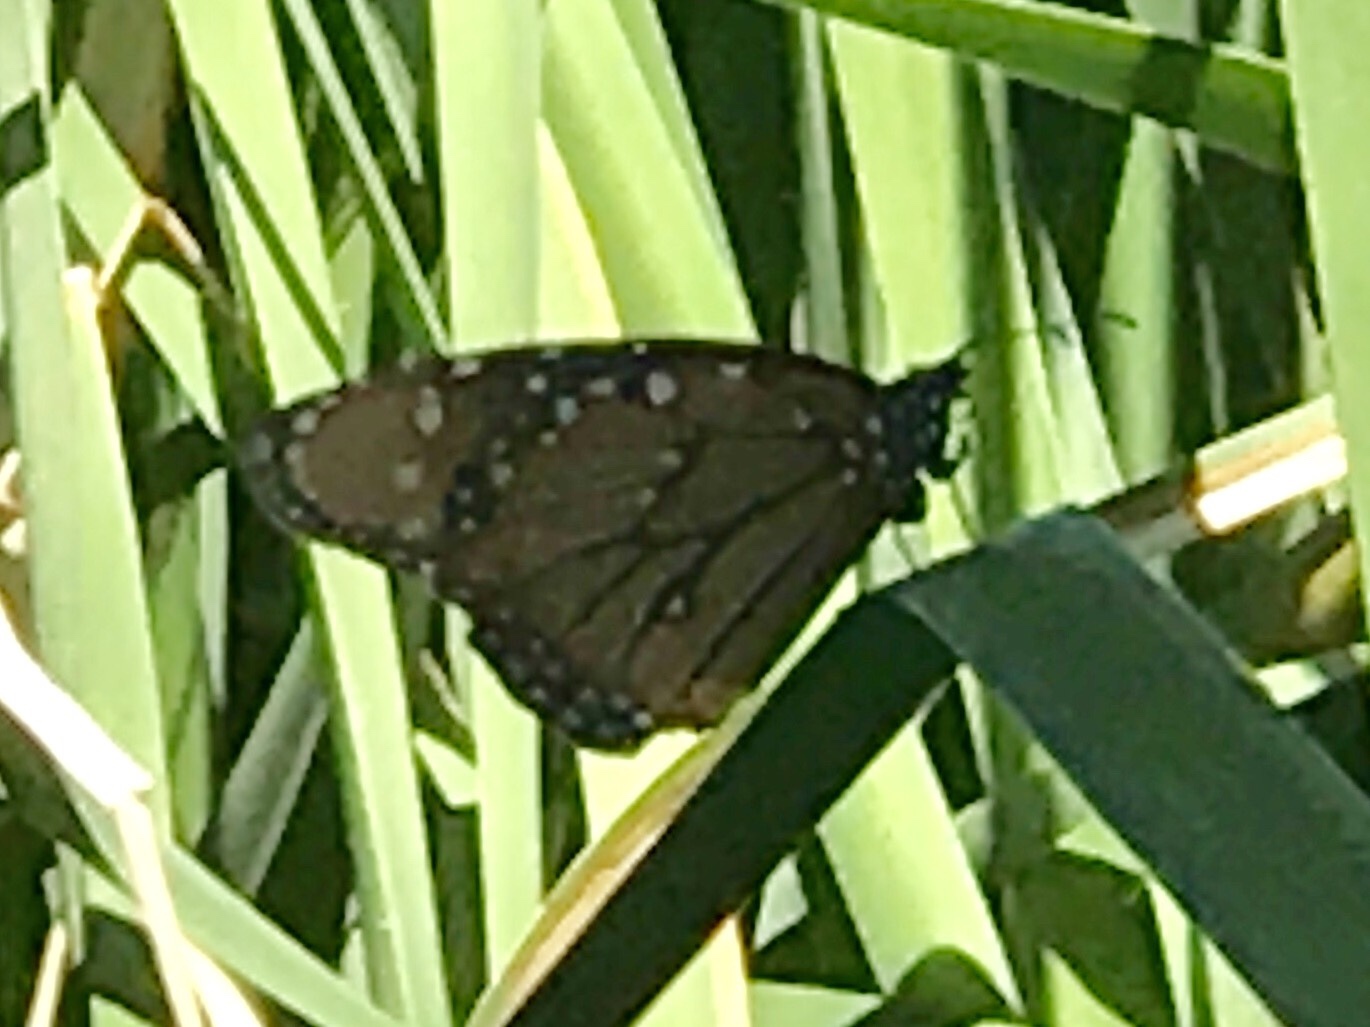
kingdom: Animalia
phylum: Arthropoda
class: Insecta
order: Lepidoptera
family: Nymphalidae
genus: Danaus
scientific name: Danaus gilippus
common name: Queen
